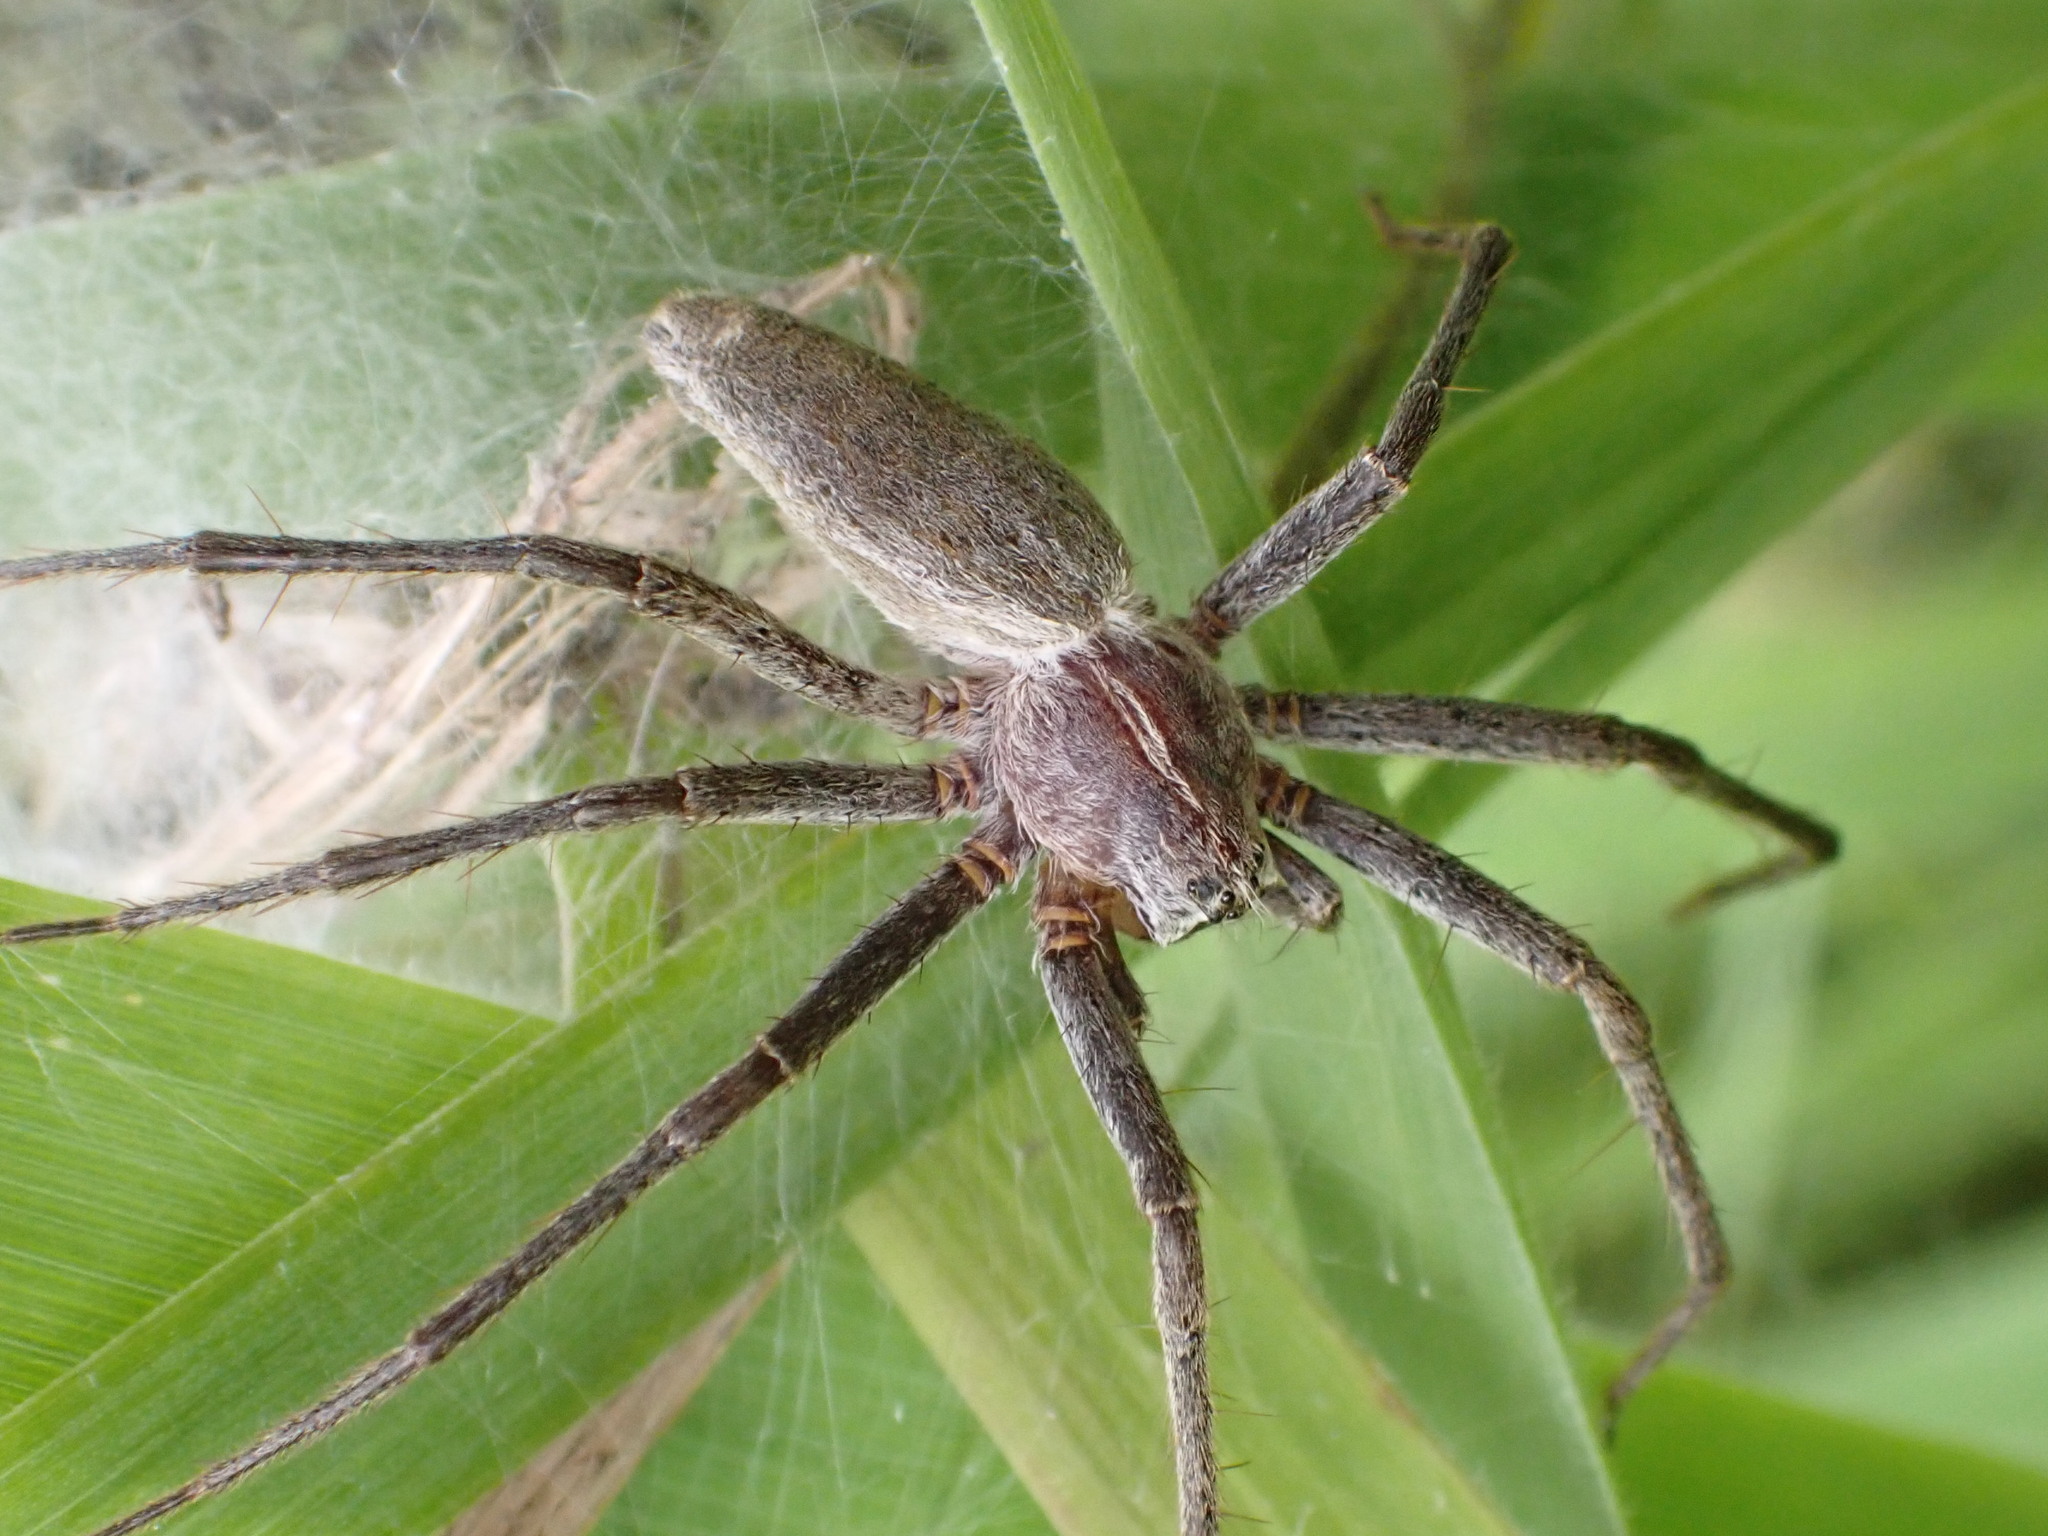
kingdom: Animalia
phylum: Arthropoda
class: Arachnida
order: Araneae
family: Pisauridae
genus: Pisaura
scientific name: Pisaura mirabilis
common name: Tent spider
